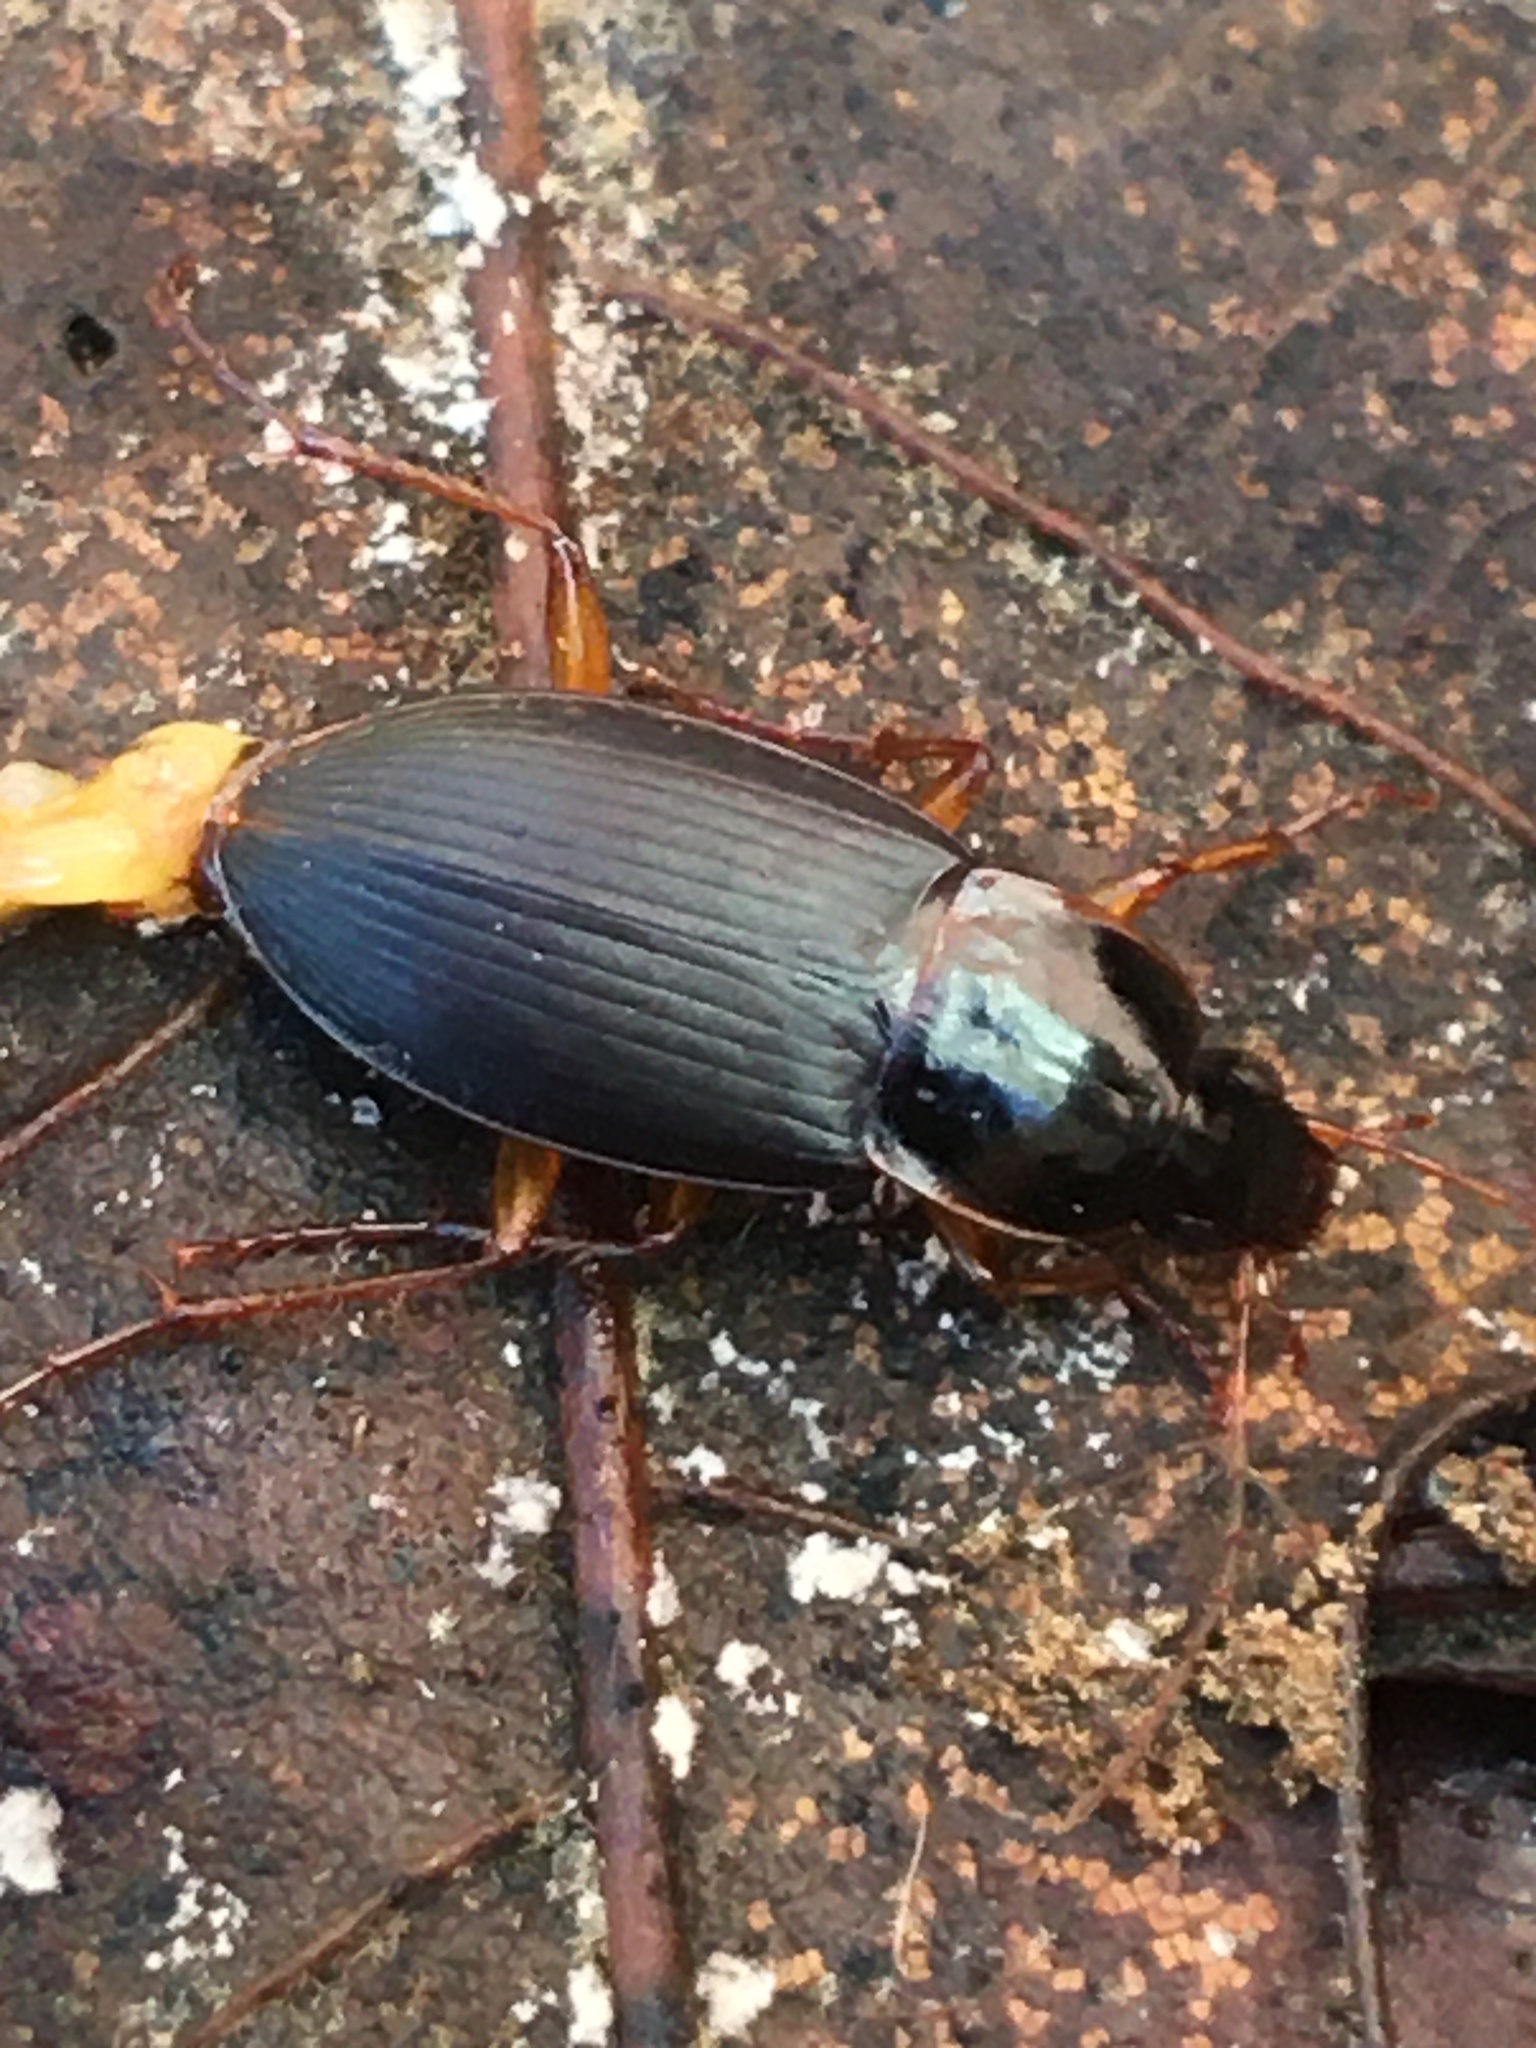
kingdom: Animalia
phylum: Arthropoda
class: Insecta
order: Coleoptera
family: Carabidae
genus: Calathus
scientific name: Calathus opaculus
